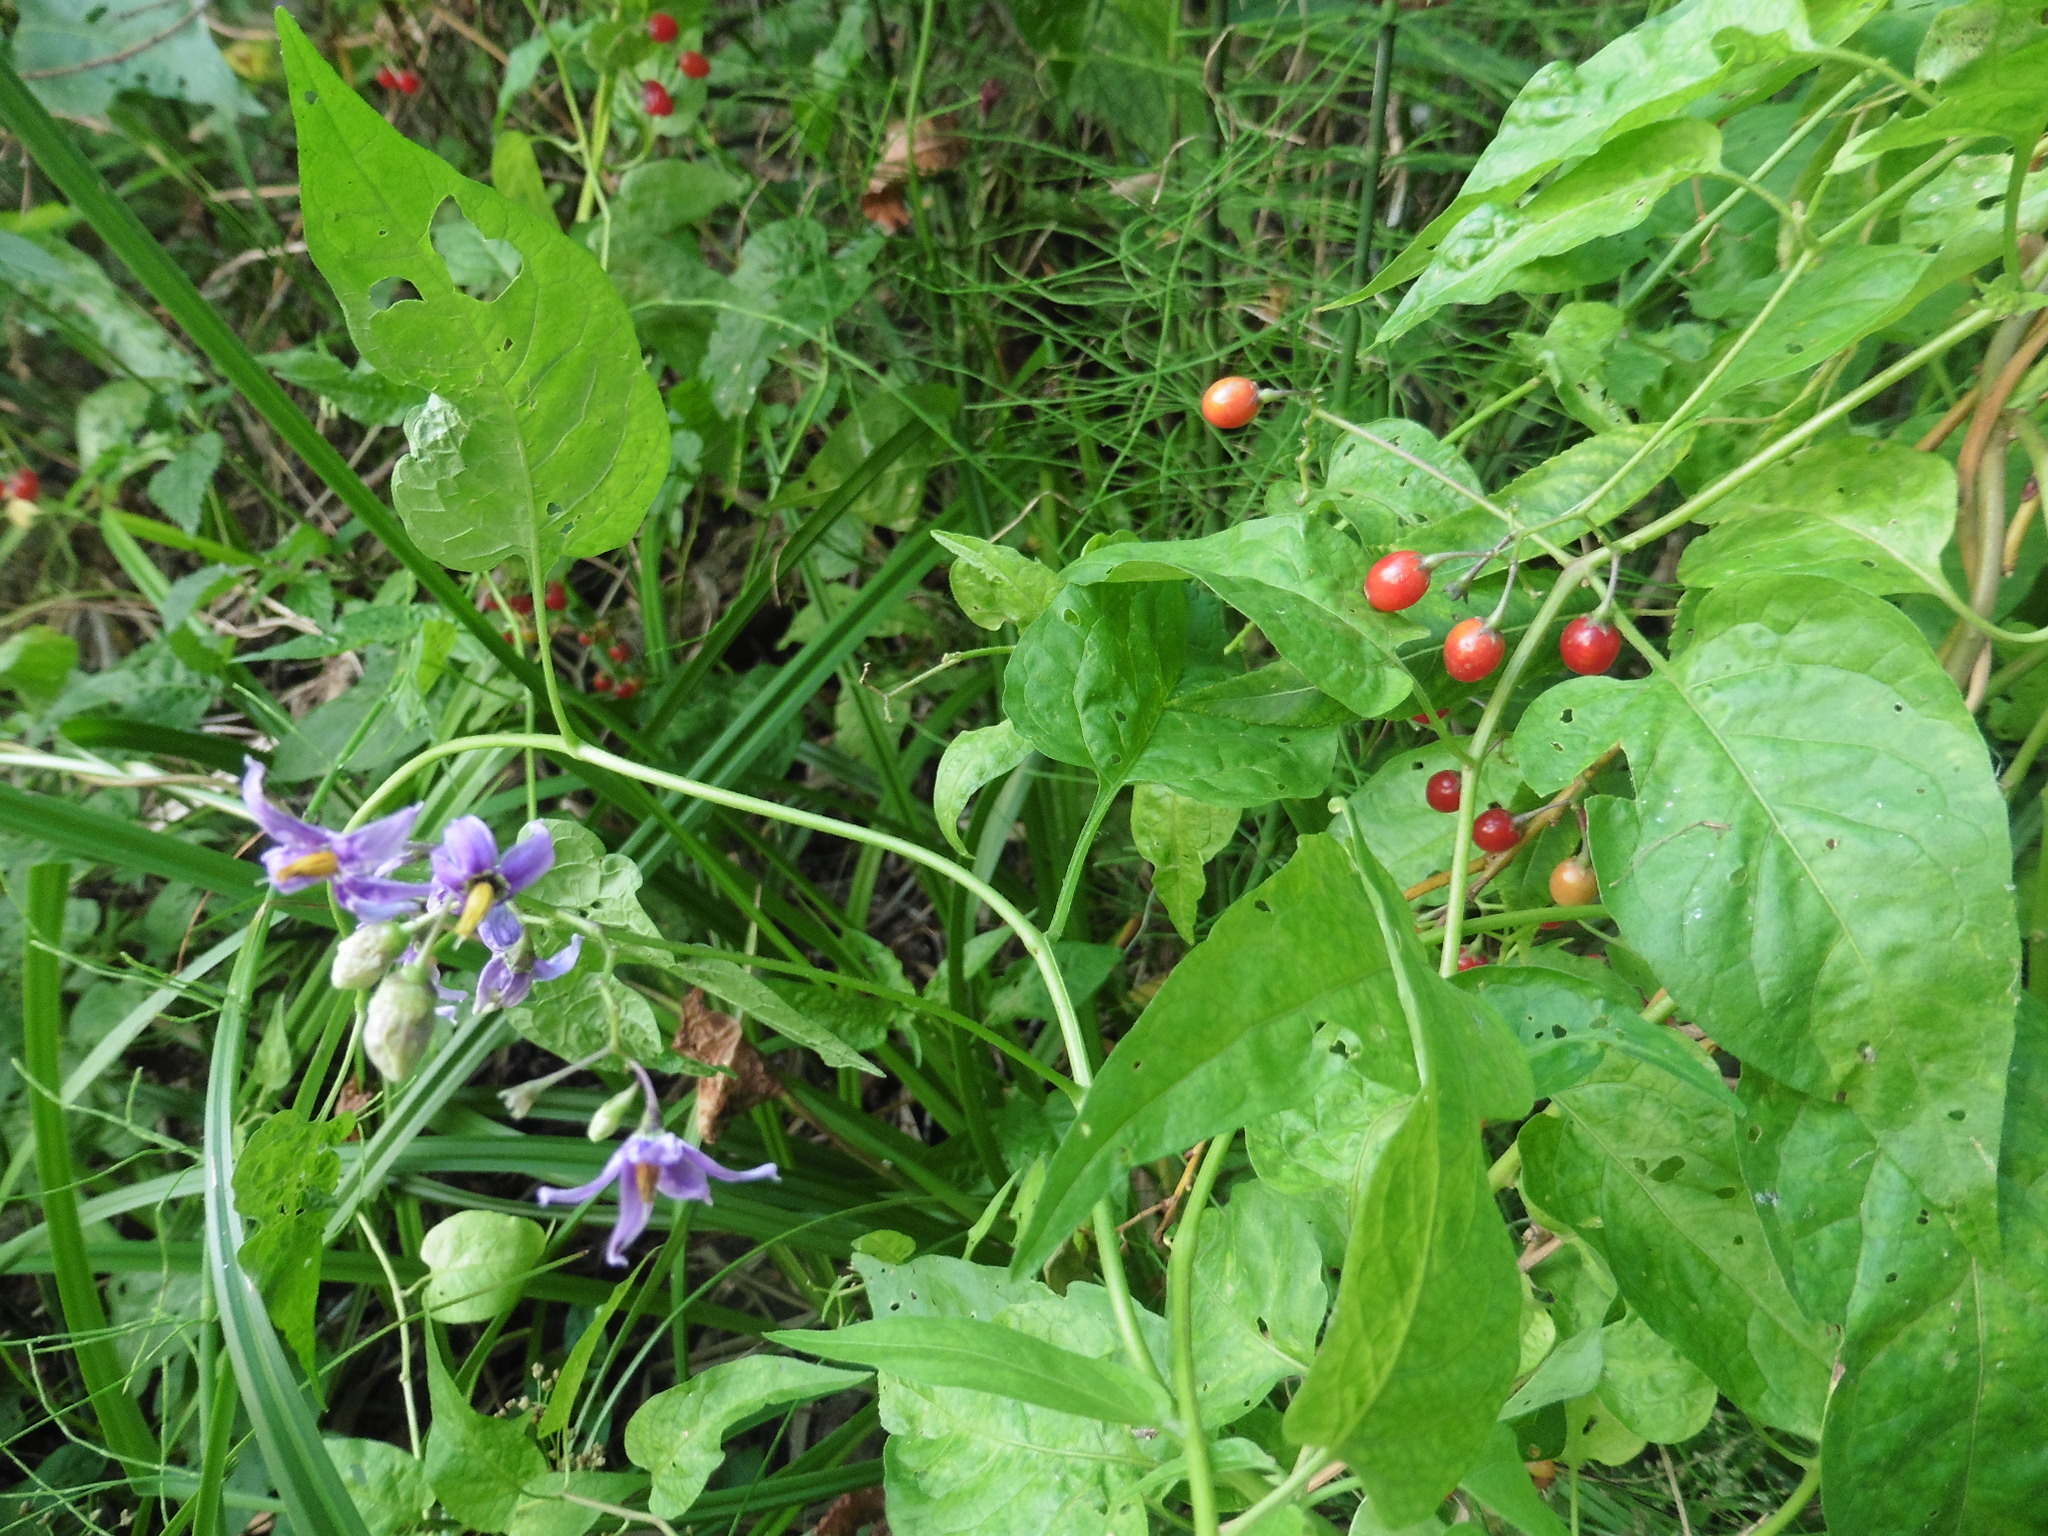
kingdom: Plantae
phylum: Tracheophyta
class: Magnoliopsida
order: Solanales
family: Solanaceae
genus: Solanum
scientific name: Solanum dulcamara
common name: Climbing nightshade
